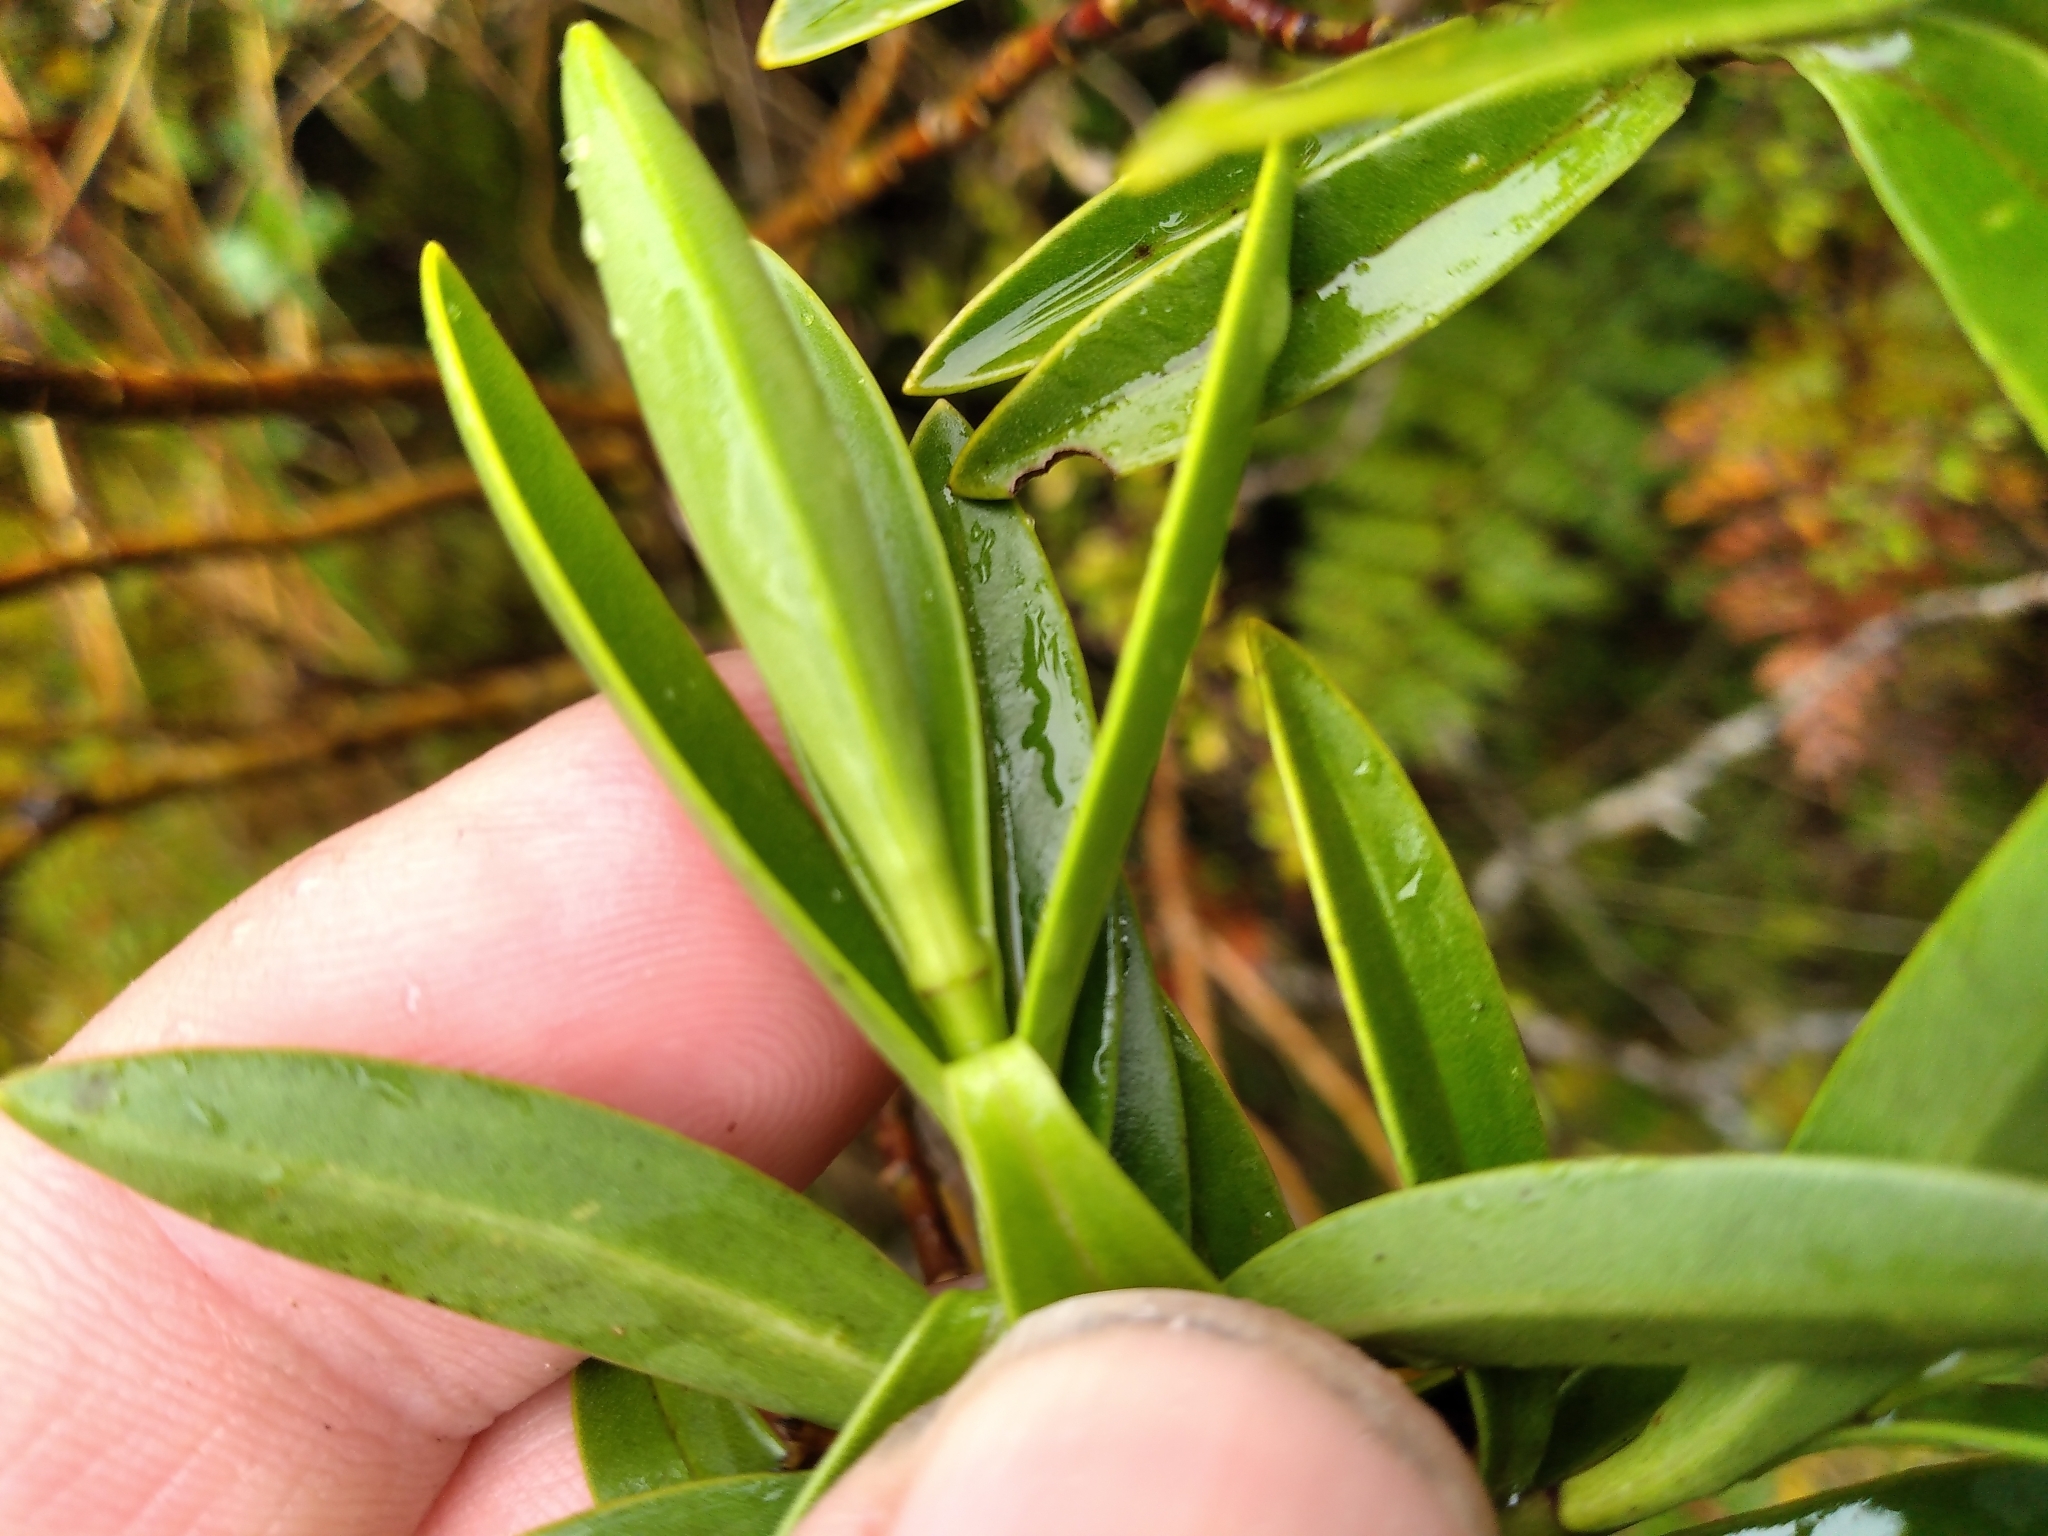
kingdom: Plantae
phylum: Tracheophyta
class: Magnoliopsida
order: Lamiales
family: Plantaginaceae
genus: Veronica
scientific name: Veronica subalpina
